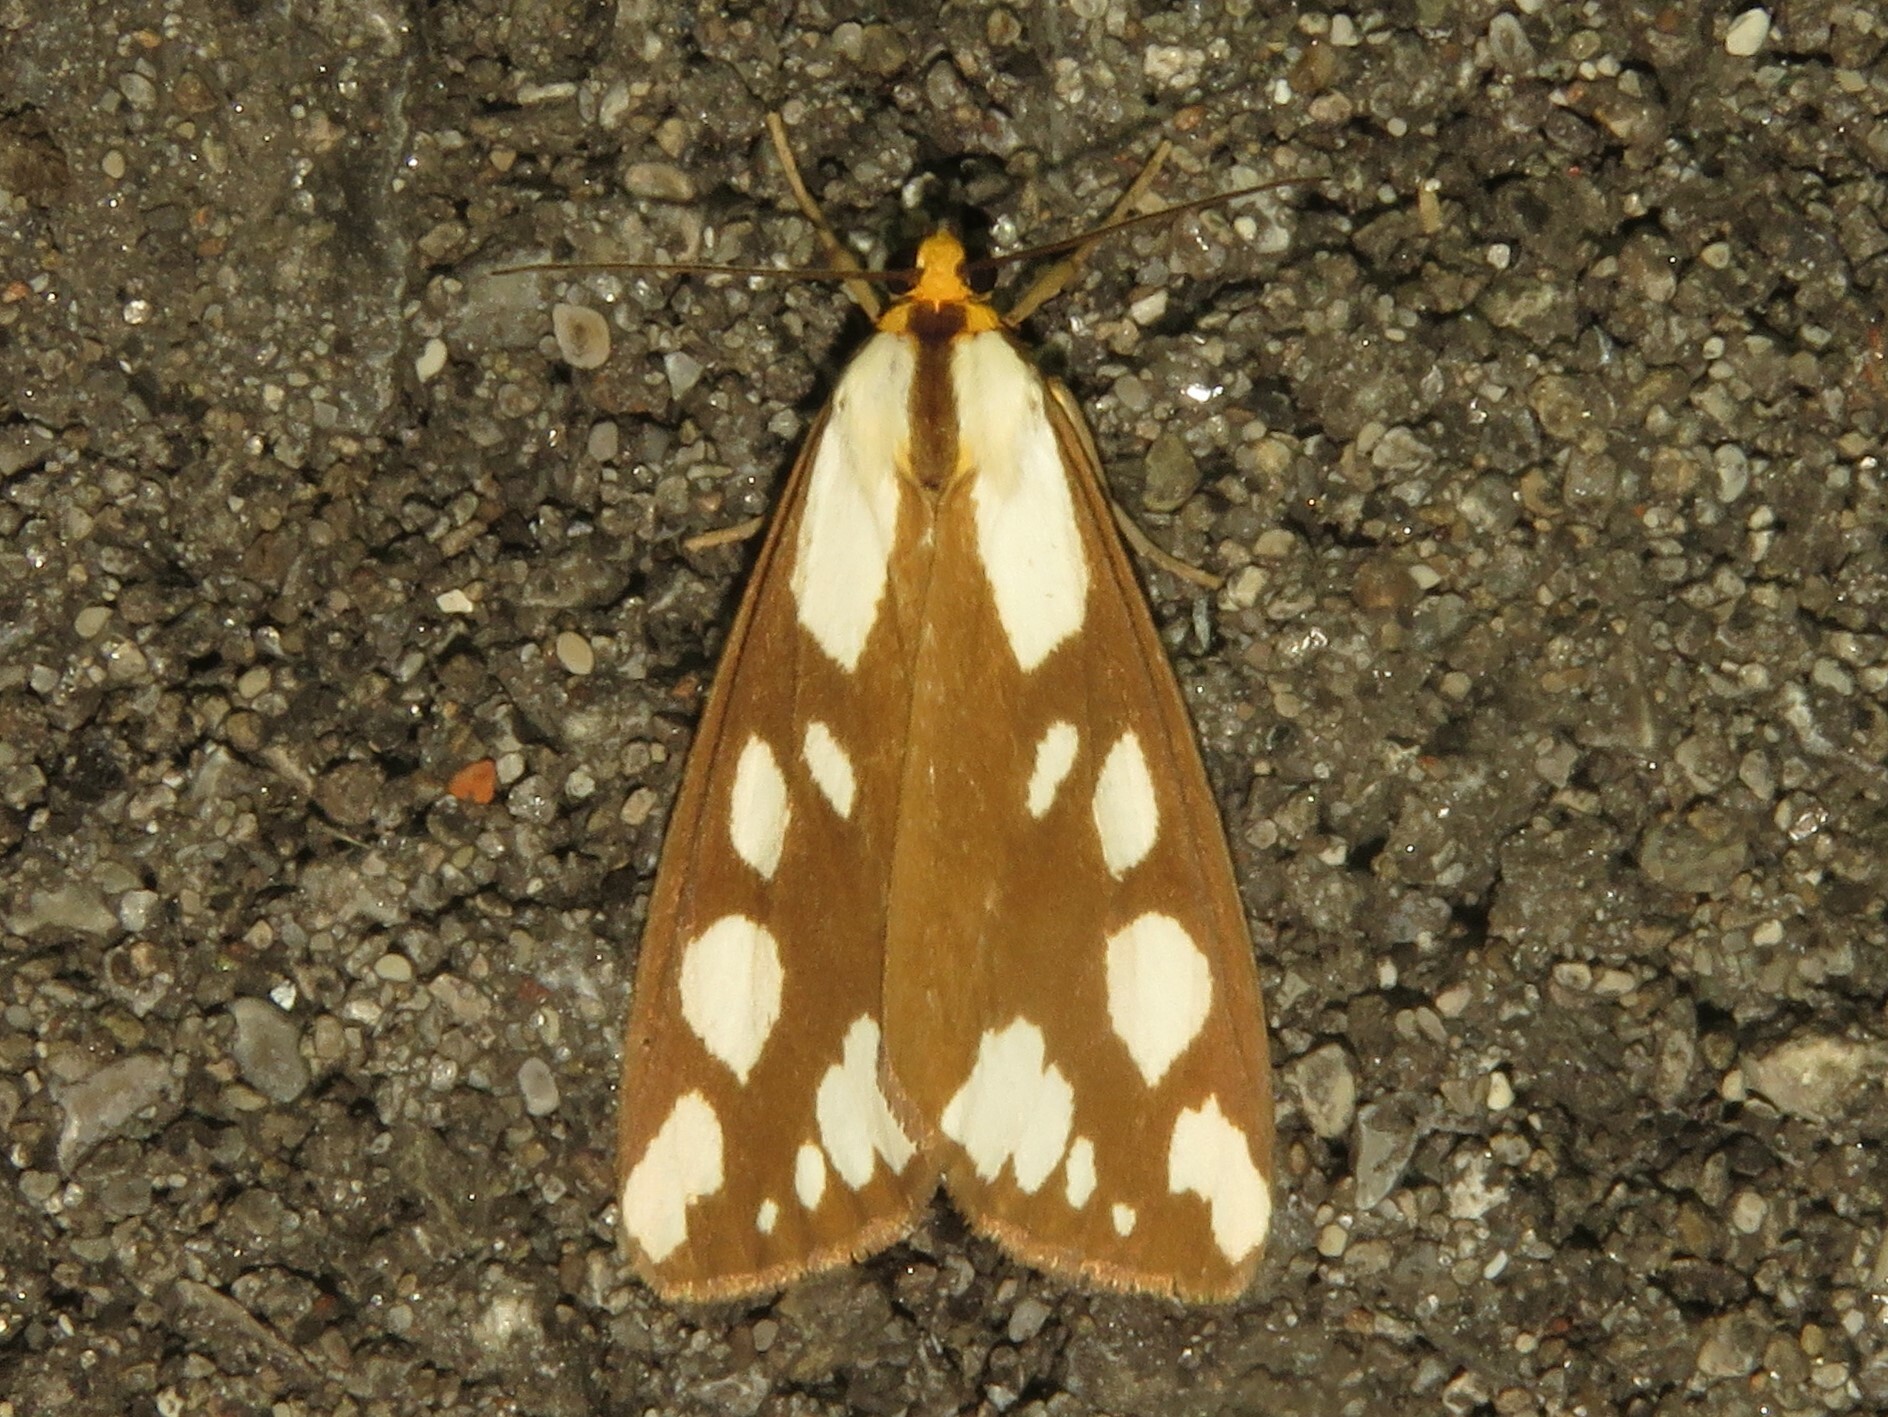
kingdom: Animalia
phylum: Arthropoda
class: Insecta
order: Lepidoptera
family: Erebidae
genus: Haploa
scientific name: Haploa confusa
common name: Confused haploa moth
